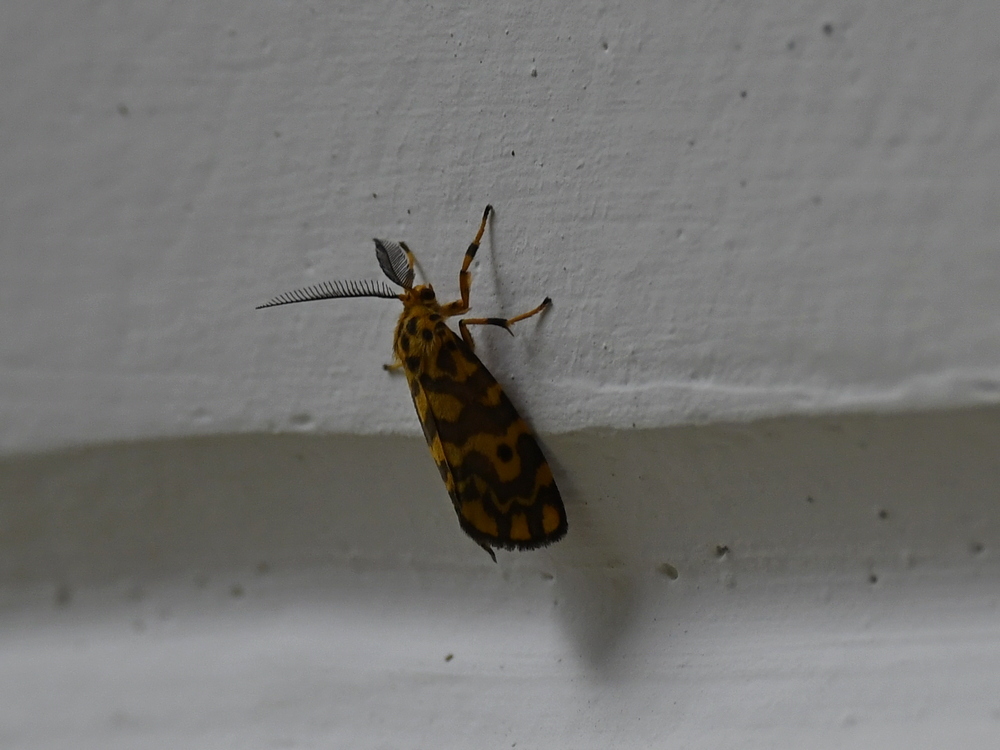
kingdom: Animalia
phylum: Arthropoda
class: Insecta
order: Lepidoptera
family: Erebidae
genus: Nepita
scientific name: Nepita conferta
